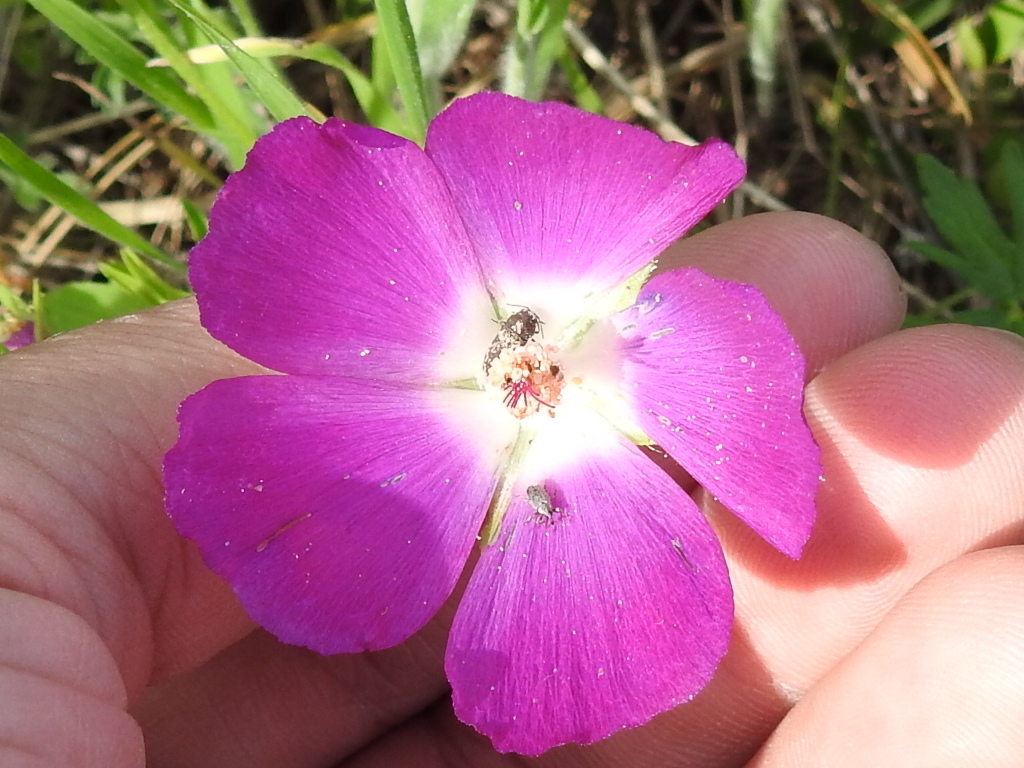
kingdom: Plantae
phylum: Tracheophyta
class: Magnoliopsida
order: Malvales
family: Malvaceae
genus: Callirhoe
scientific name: Callirhoe involucrata
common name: Purple poppy-mallow
